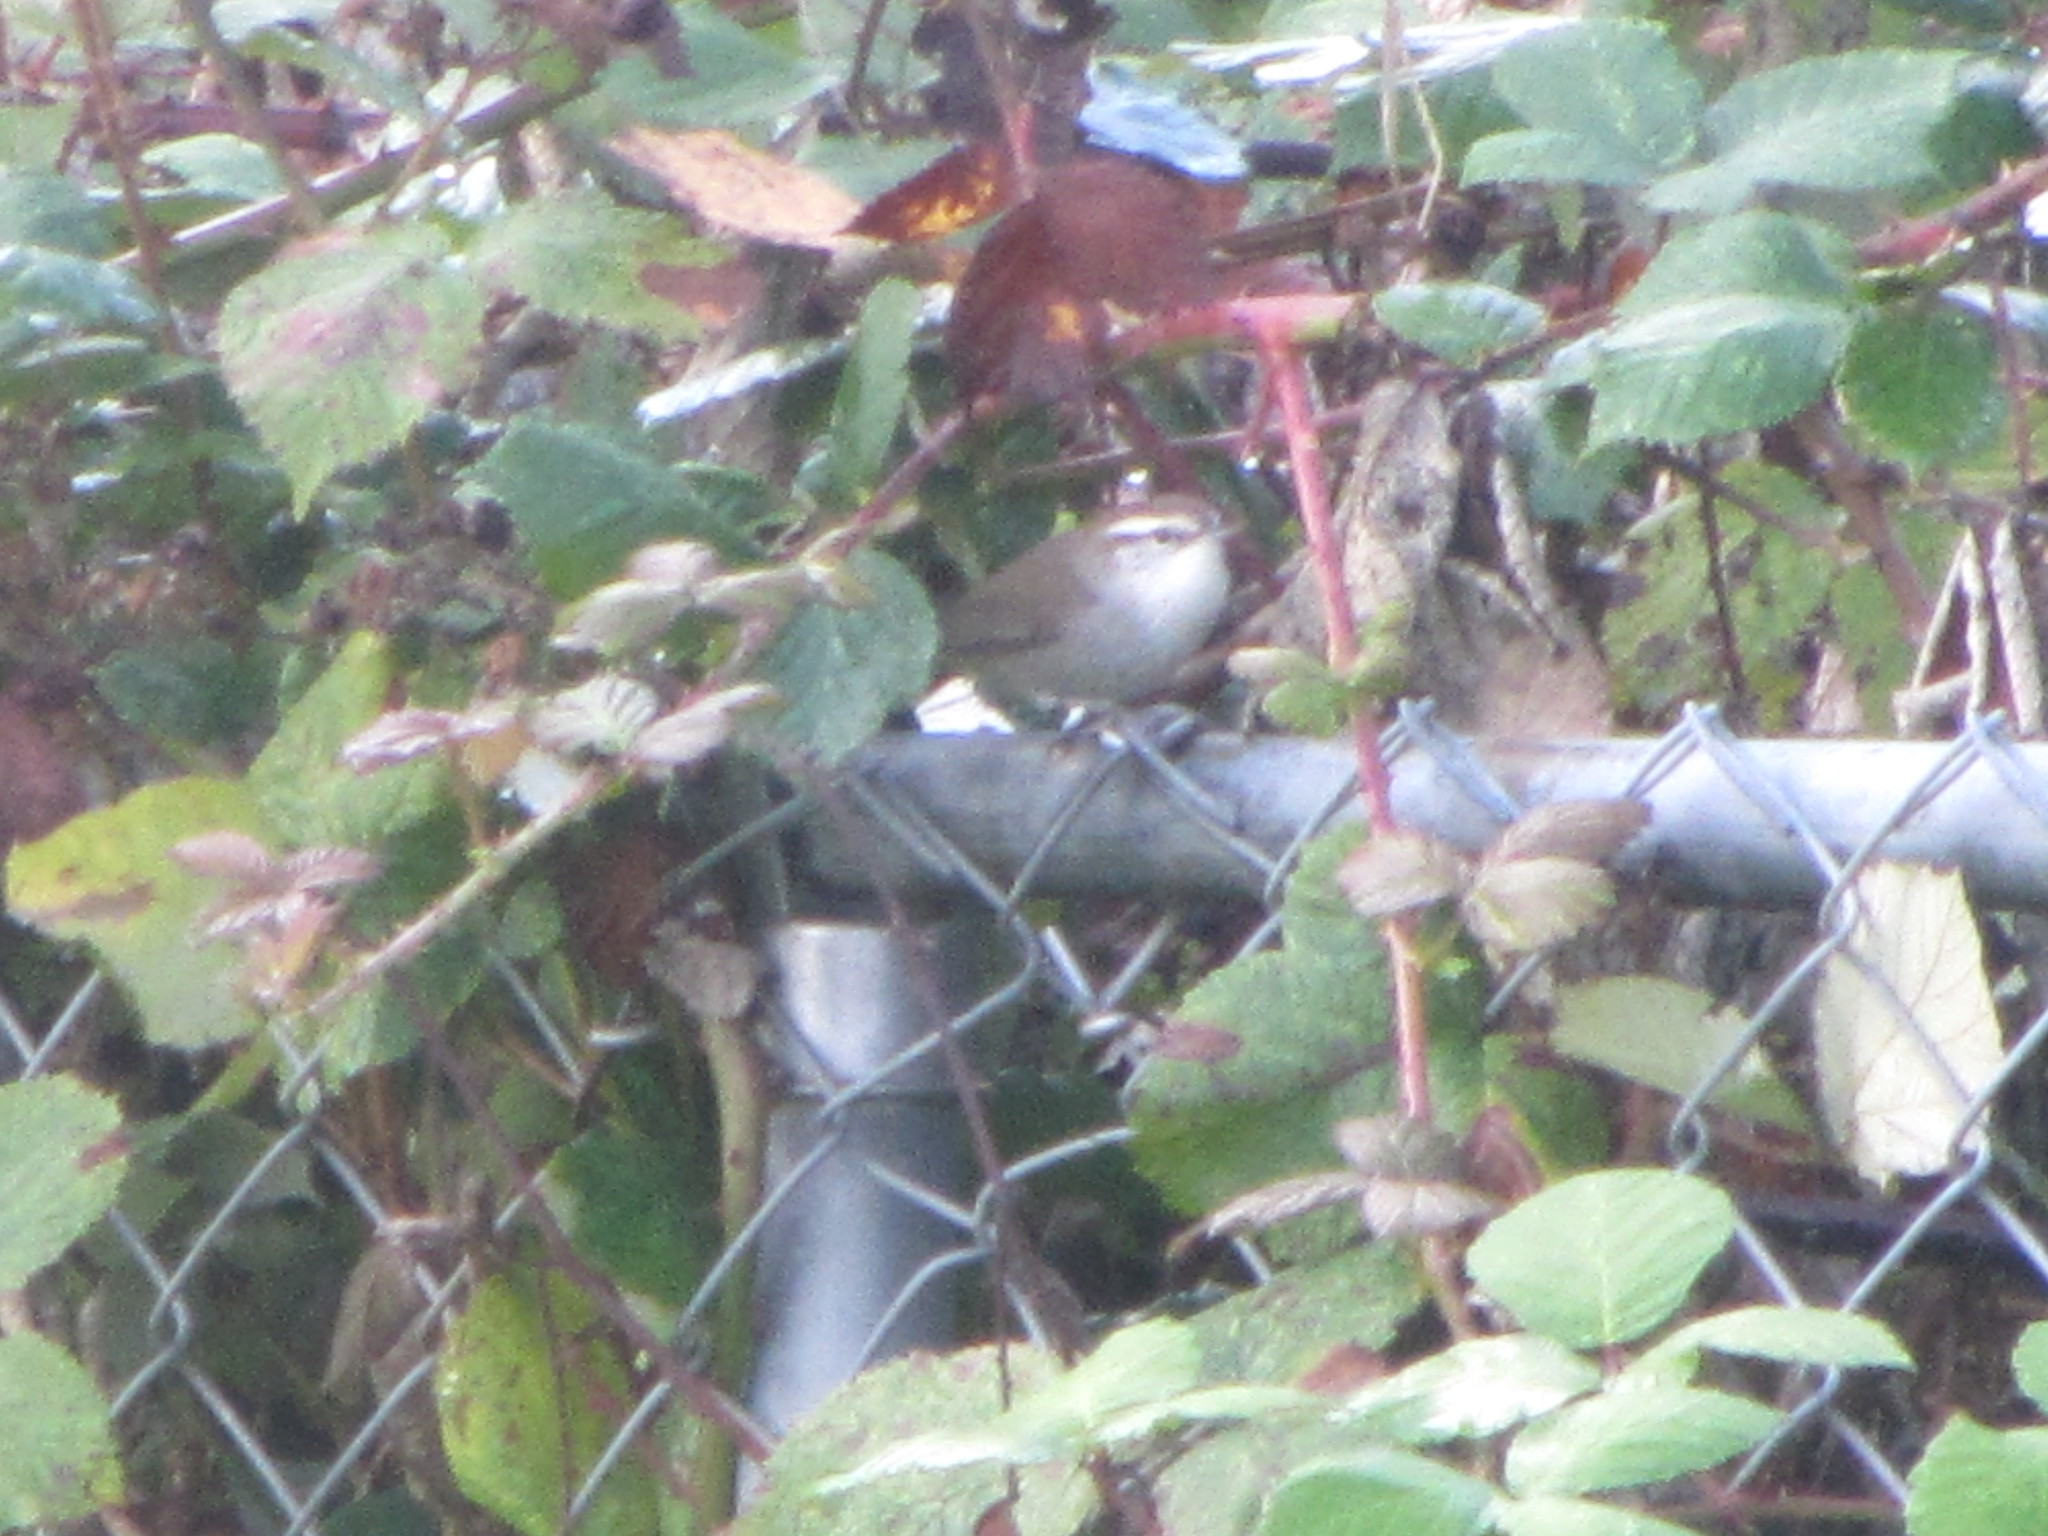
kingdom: Animalia
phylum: Chordata
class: Aves
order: Passeriformes
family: Troglodytidae
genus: Thryomanes
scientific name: Thryomanes bewickii
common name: Bewick's wren
